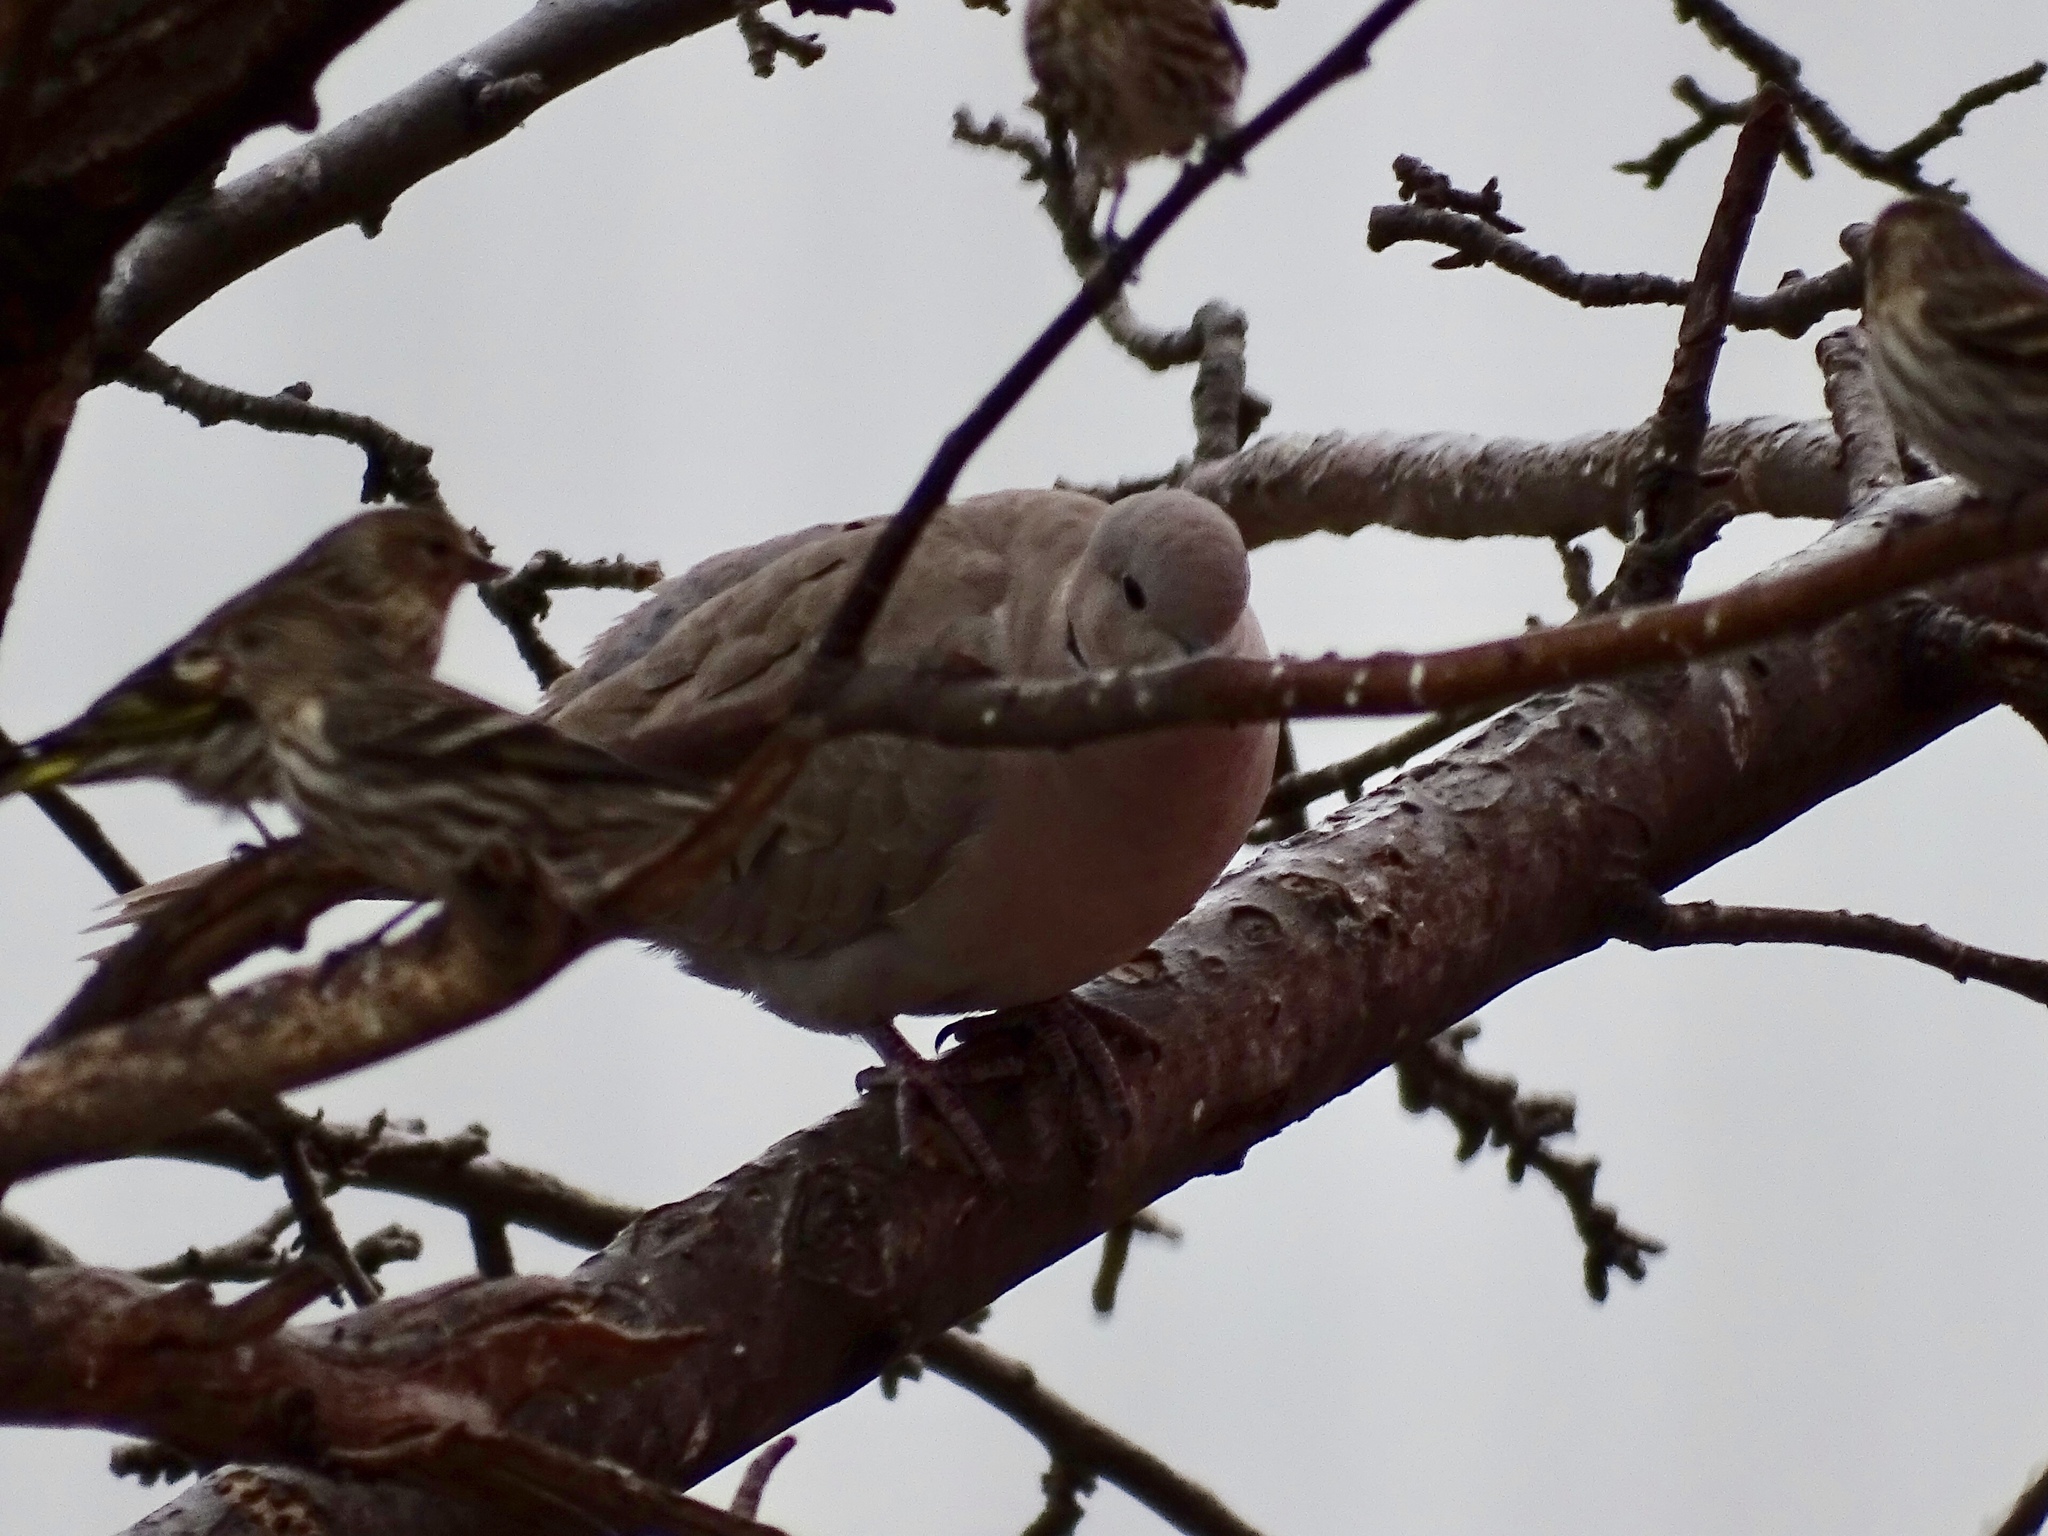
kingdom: Animalia
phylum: Chordata
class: Aves
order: Columbiformes
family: Columbidae
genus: Streptopelia
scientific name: Streptopelia decaocto
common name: Eurasian collared dove
